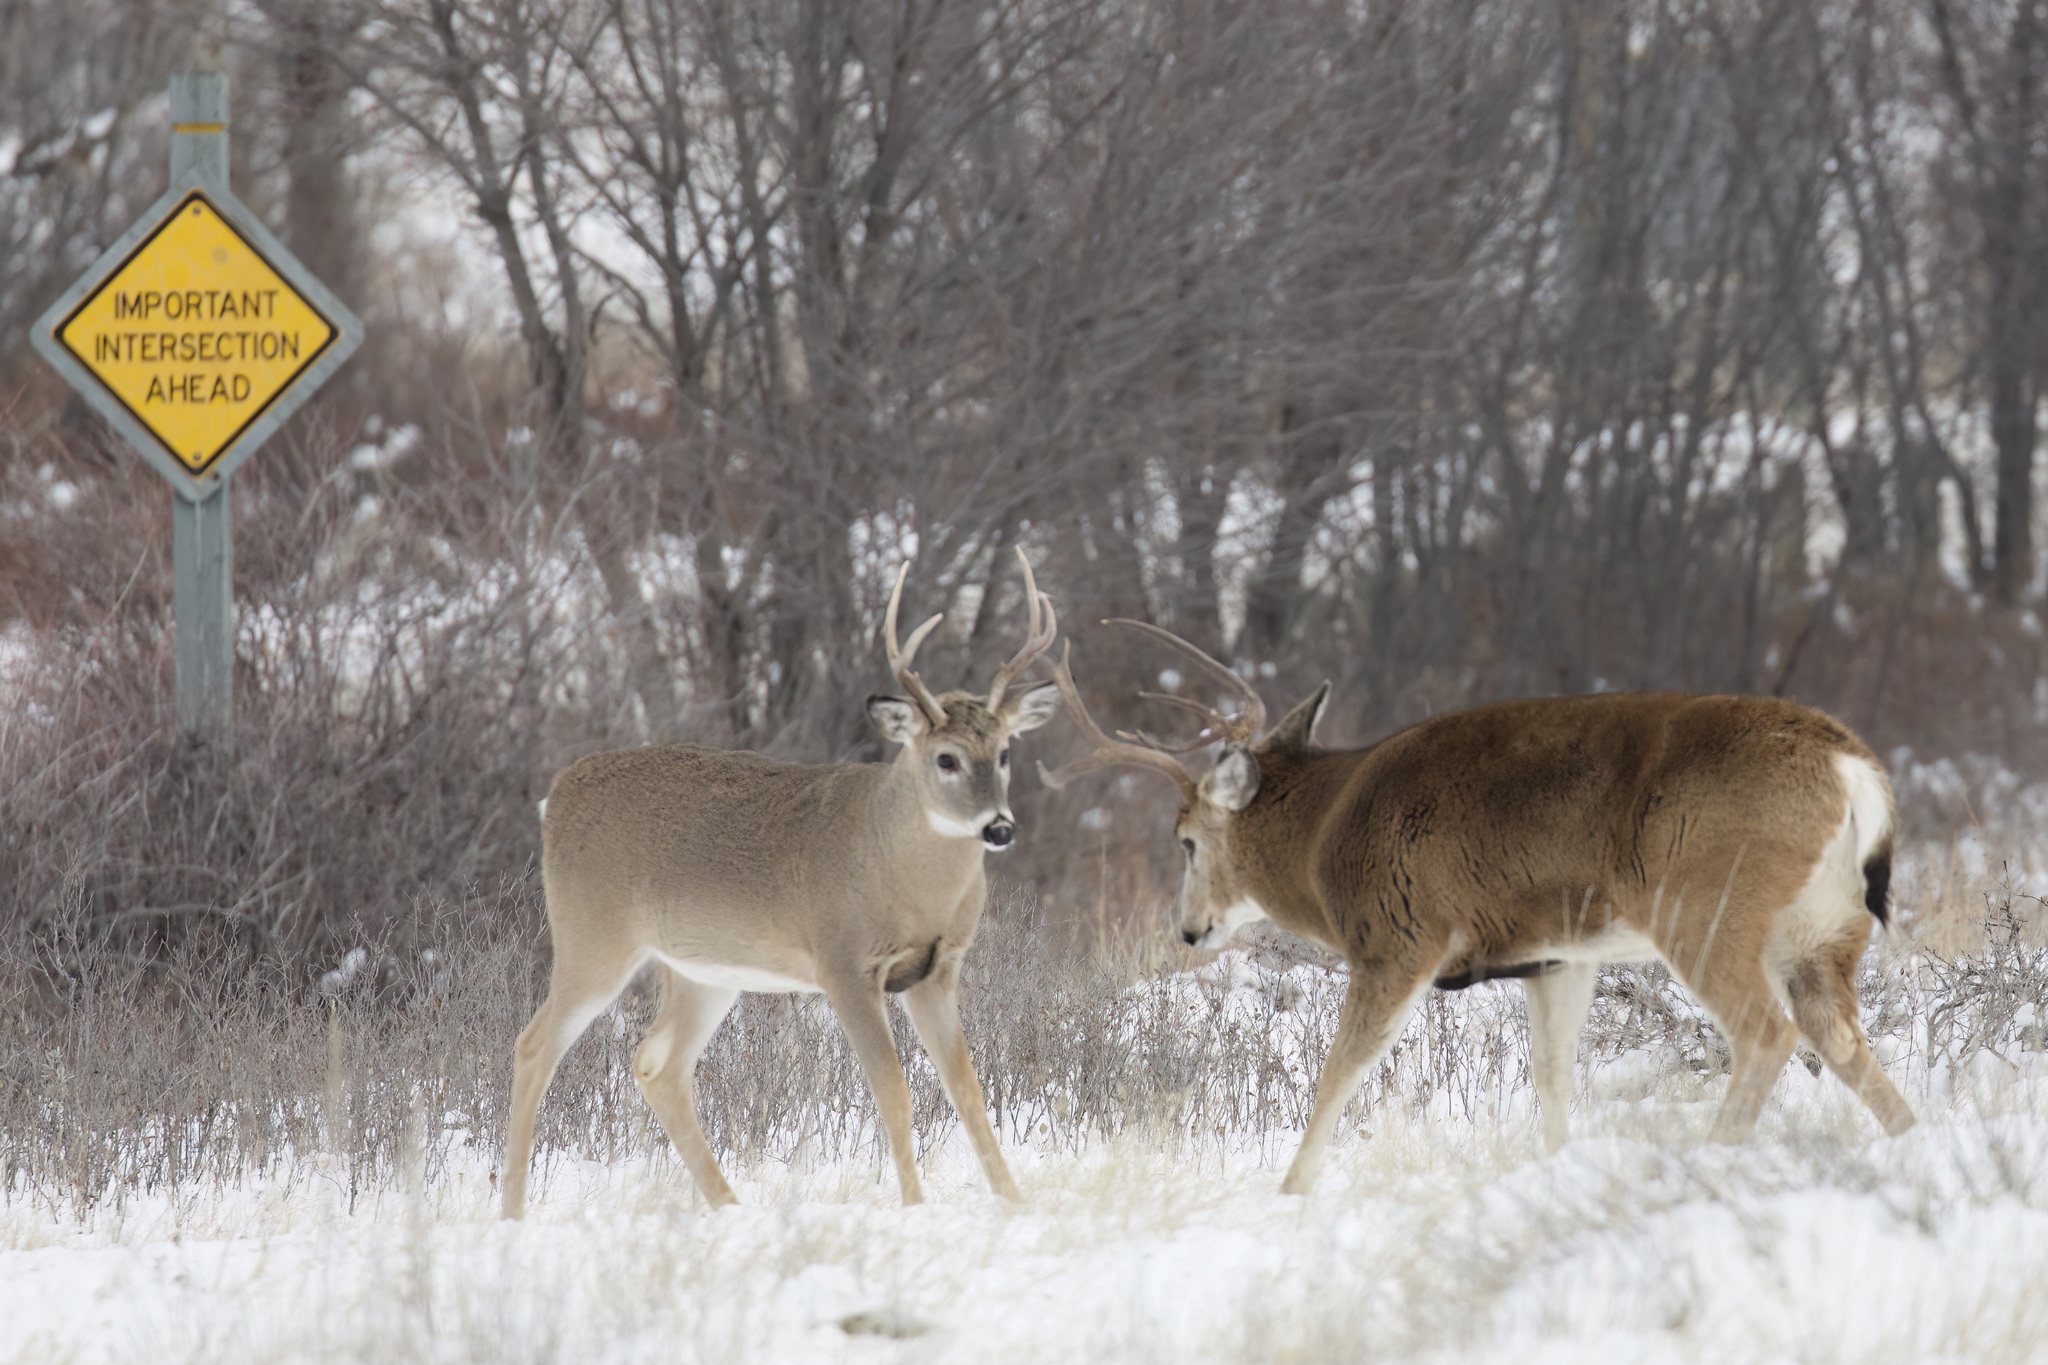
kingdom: Animalia
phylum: Chordata
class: Mammalia
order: Artiodactyla
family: Cervidae
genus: Odocoileus
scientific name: Odocoileus virginianus
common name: White-tailed deer
